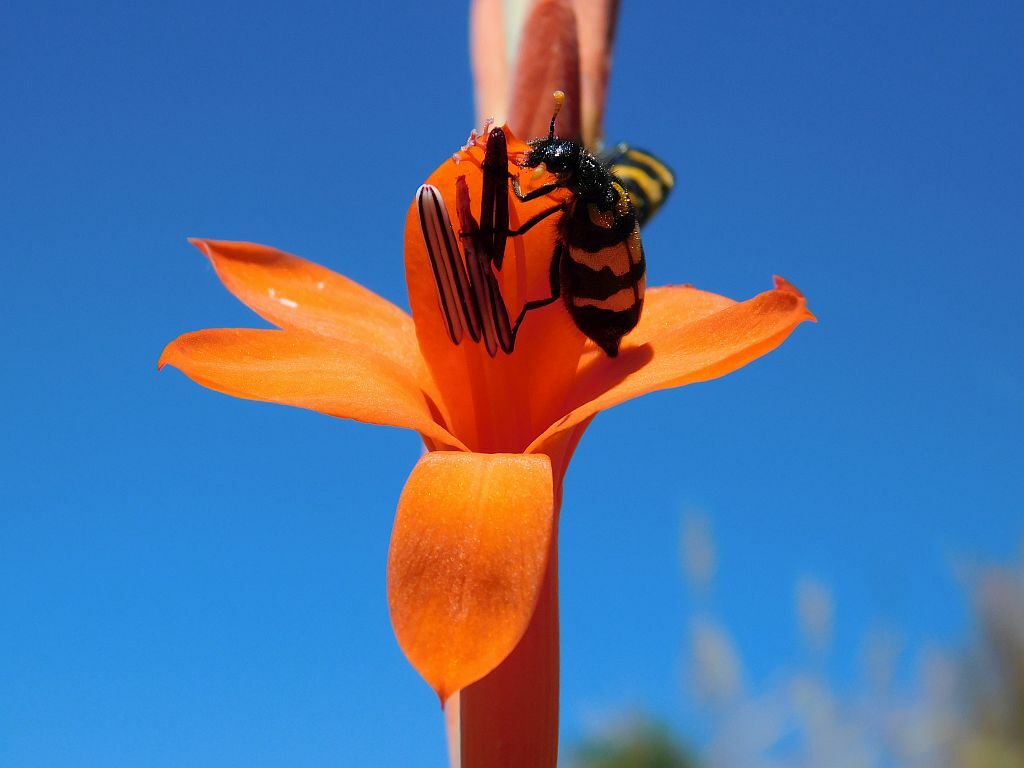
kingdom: Animalia
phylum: Arthropoda
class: Insecta
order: Coleoptera
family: Meloidae
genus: Meloe
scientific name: Meloe lunata
